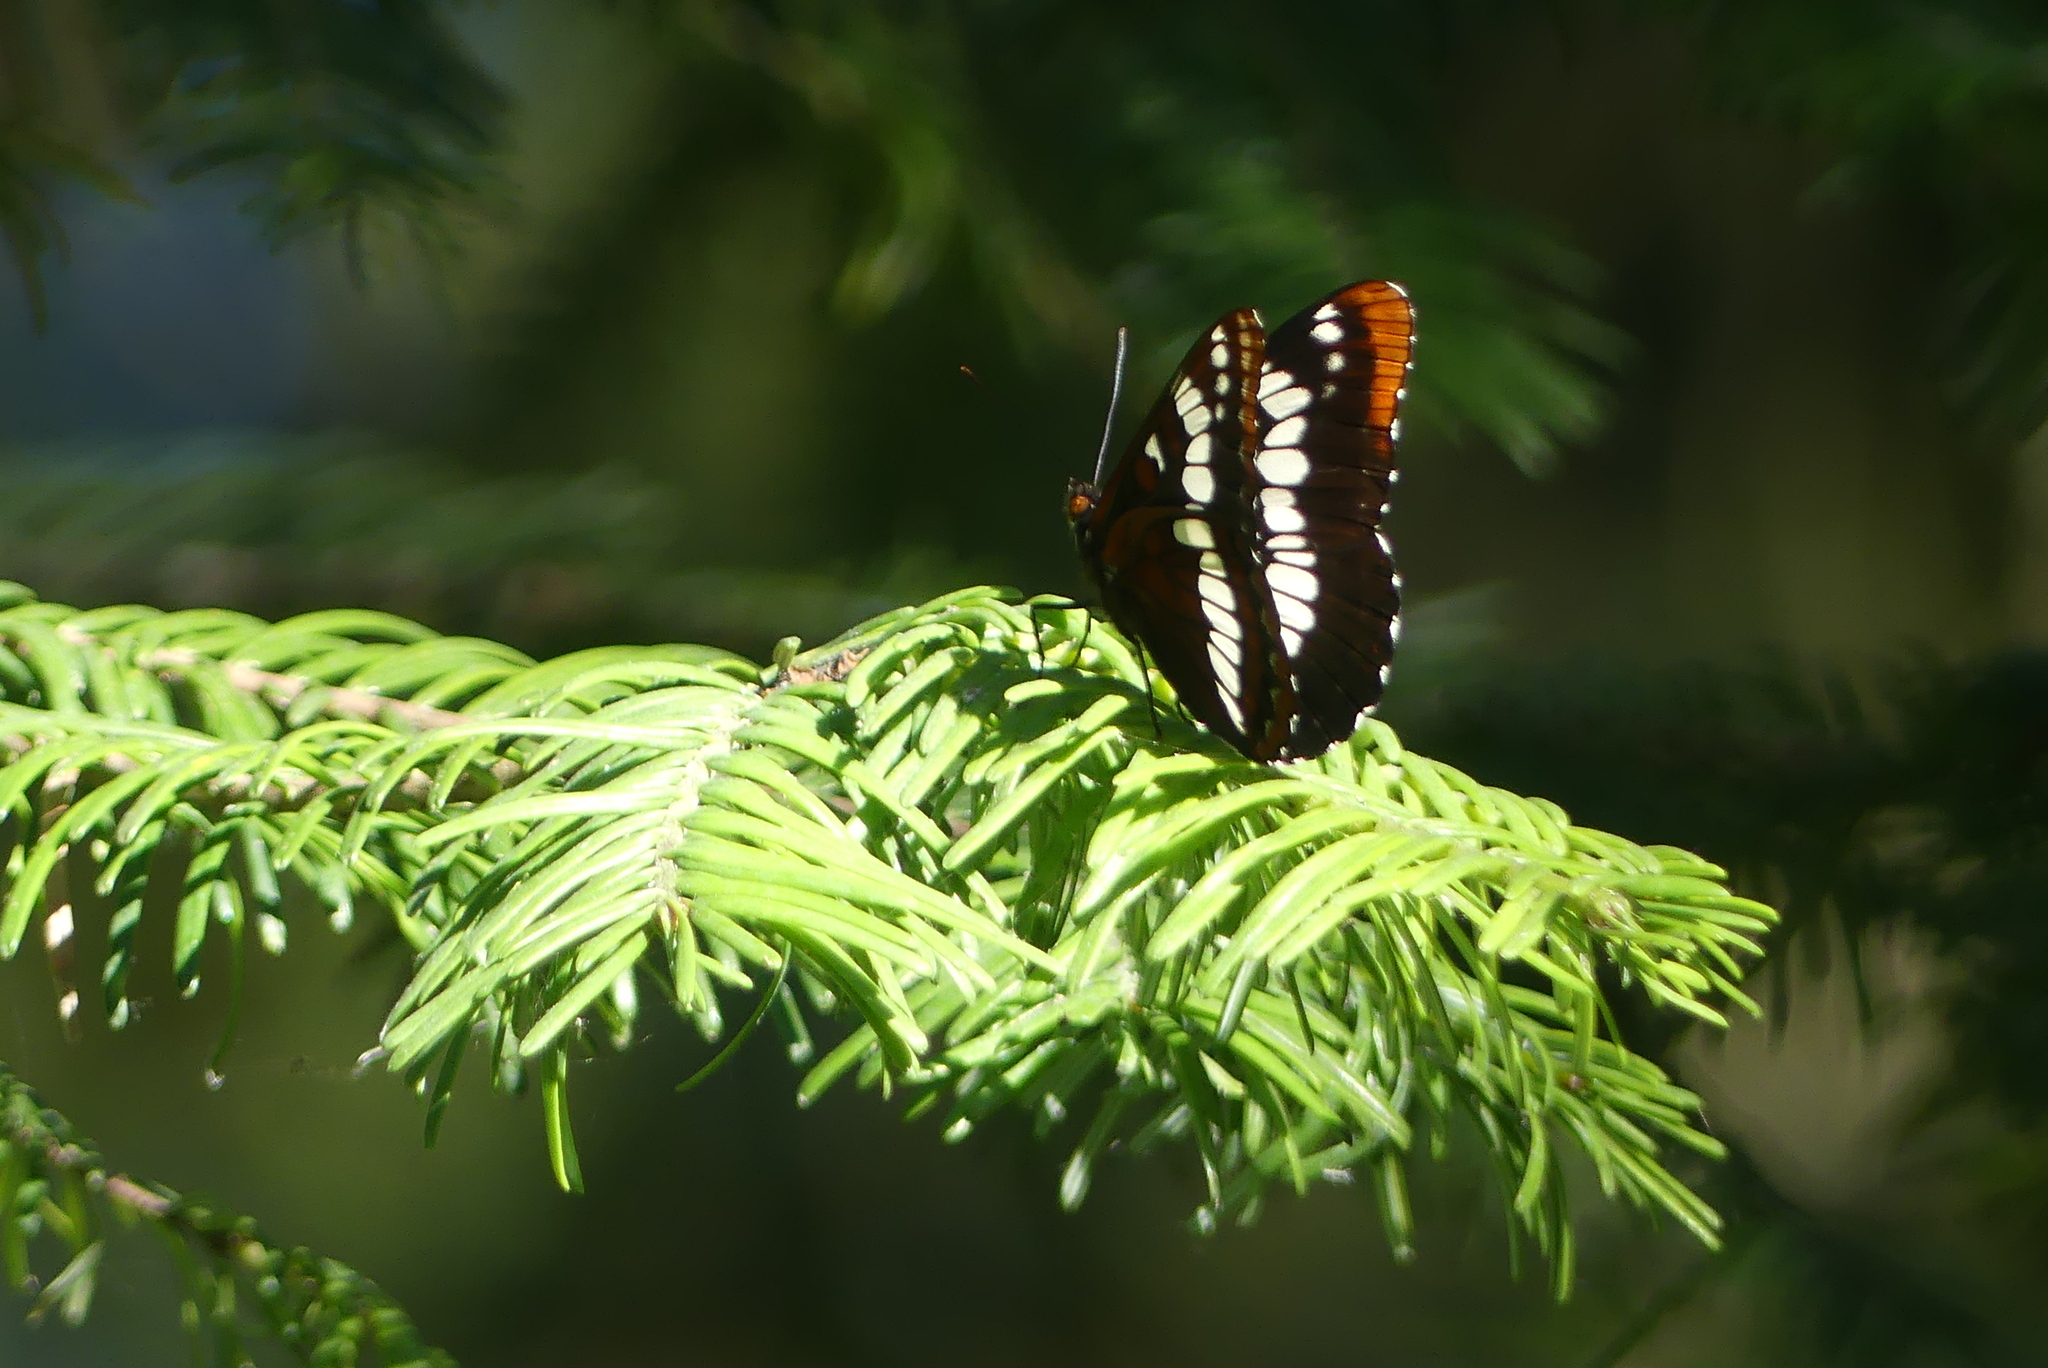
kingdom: Animalia
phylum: Arthropoda
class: Insecta
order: Lepidoptera
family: Nymphalidae
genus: Limenitis
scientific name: Limenitis lorquini
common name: Lorquin's admiral
